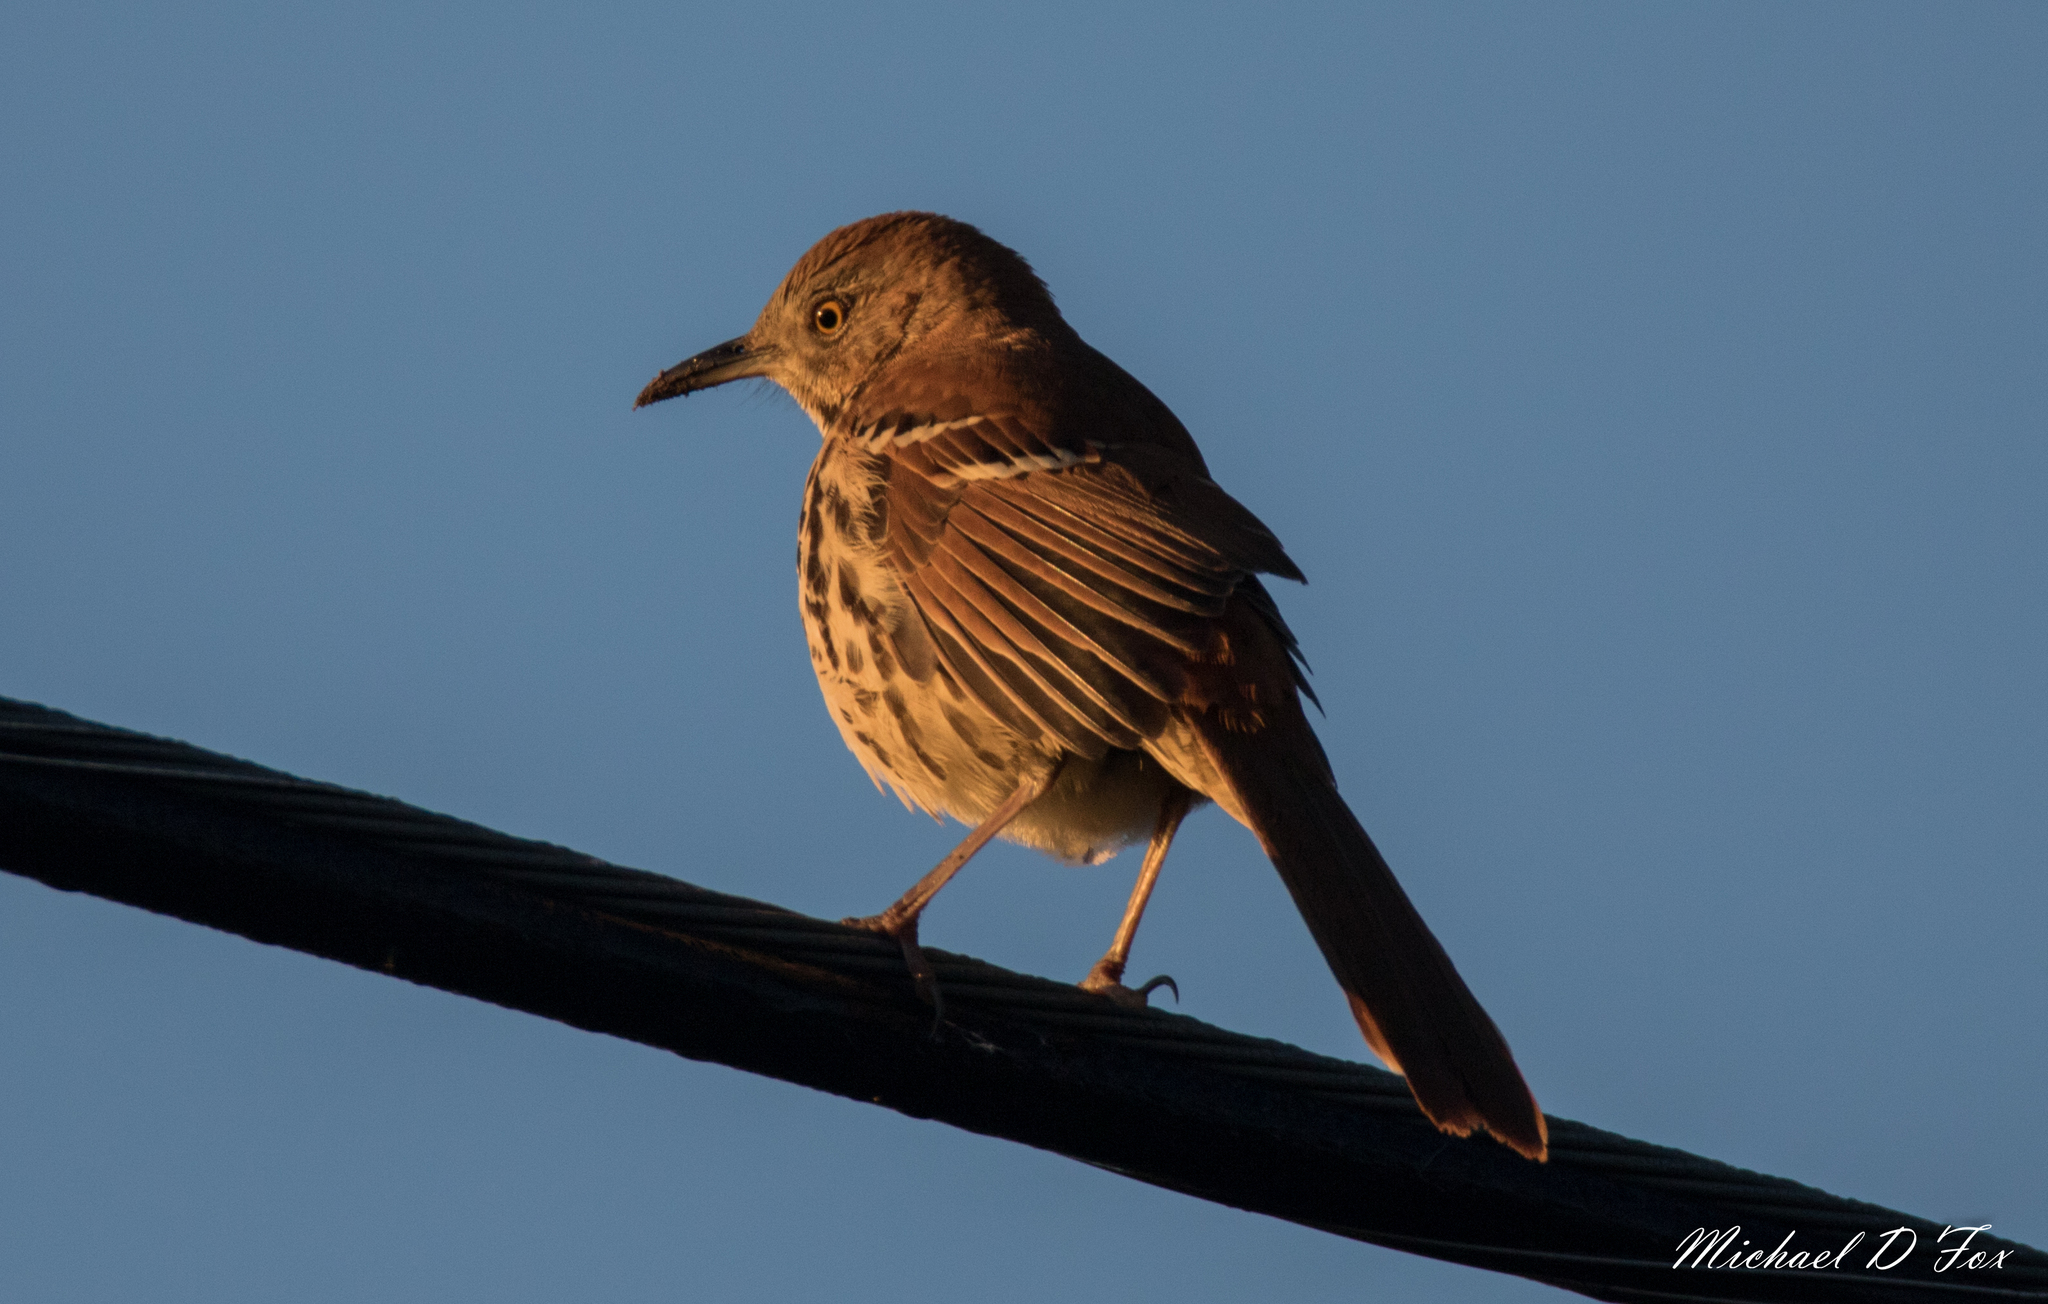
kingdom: Animalia
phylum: Chordata
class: Aves
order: Passeriformes
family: Mimidae
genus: Toxostoma
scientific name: Toxostoma rufum
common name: Brown thrasher
